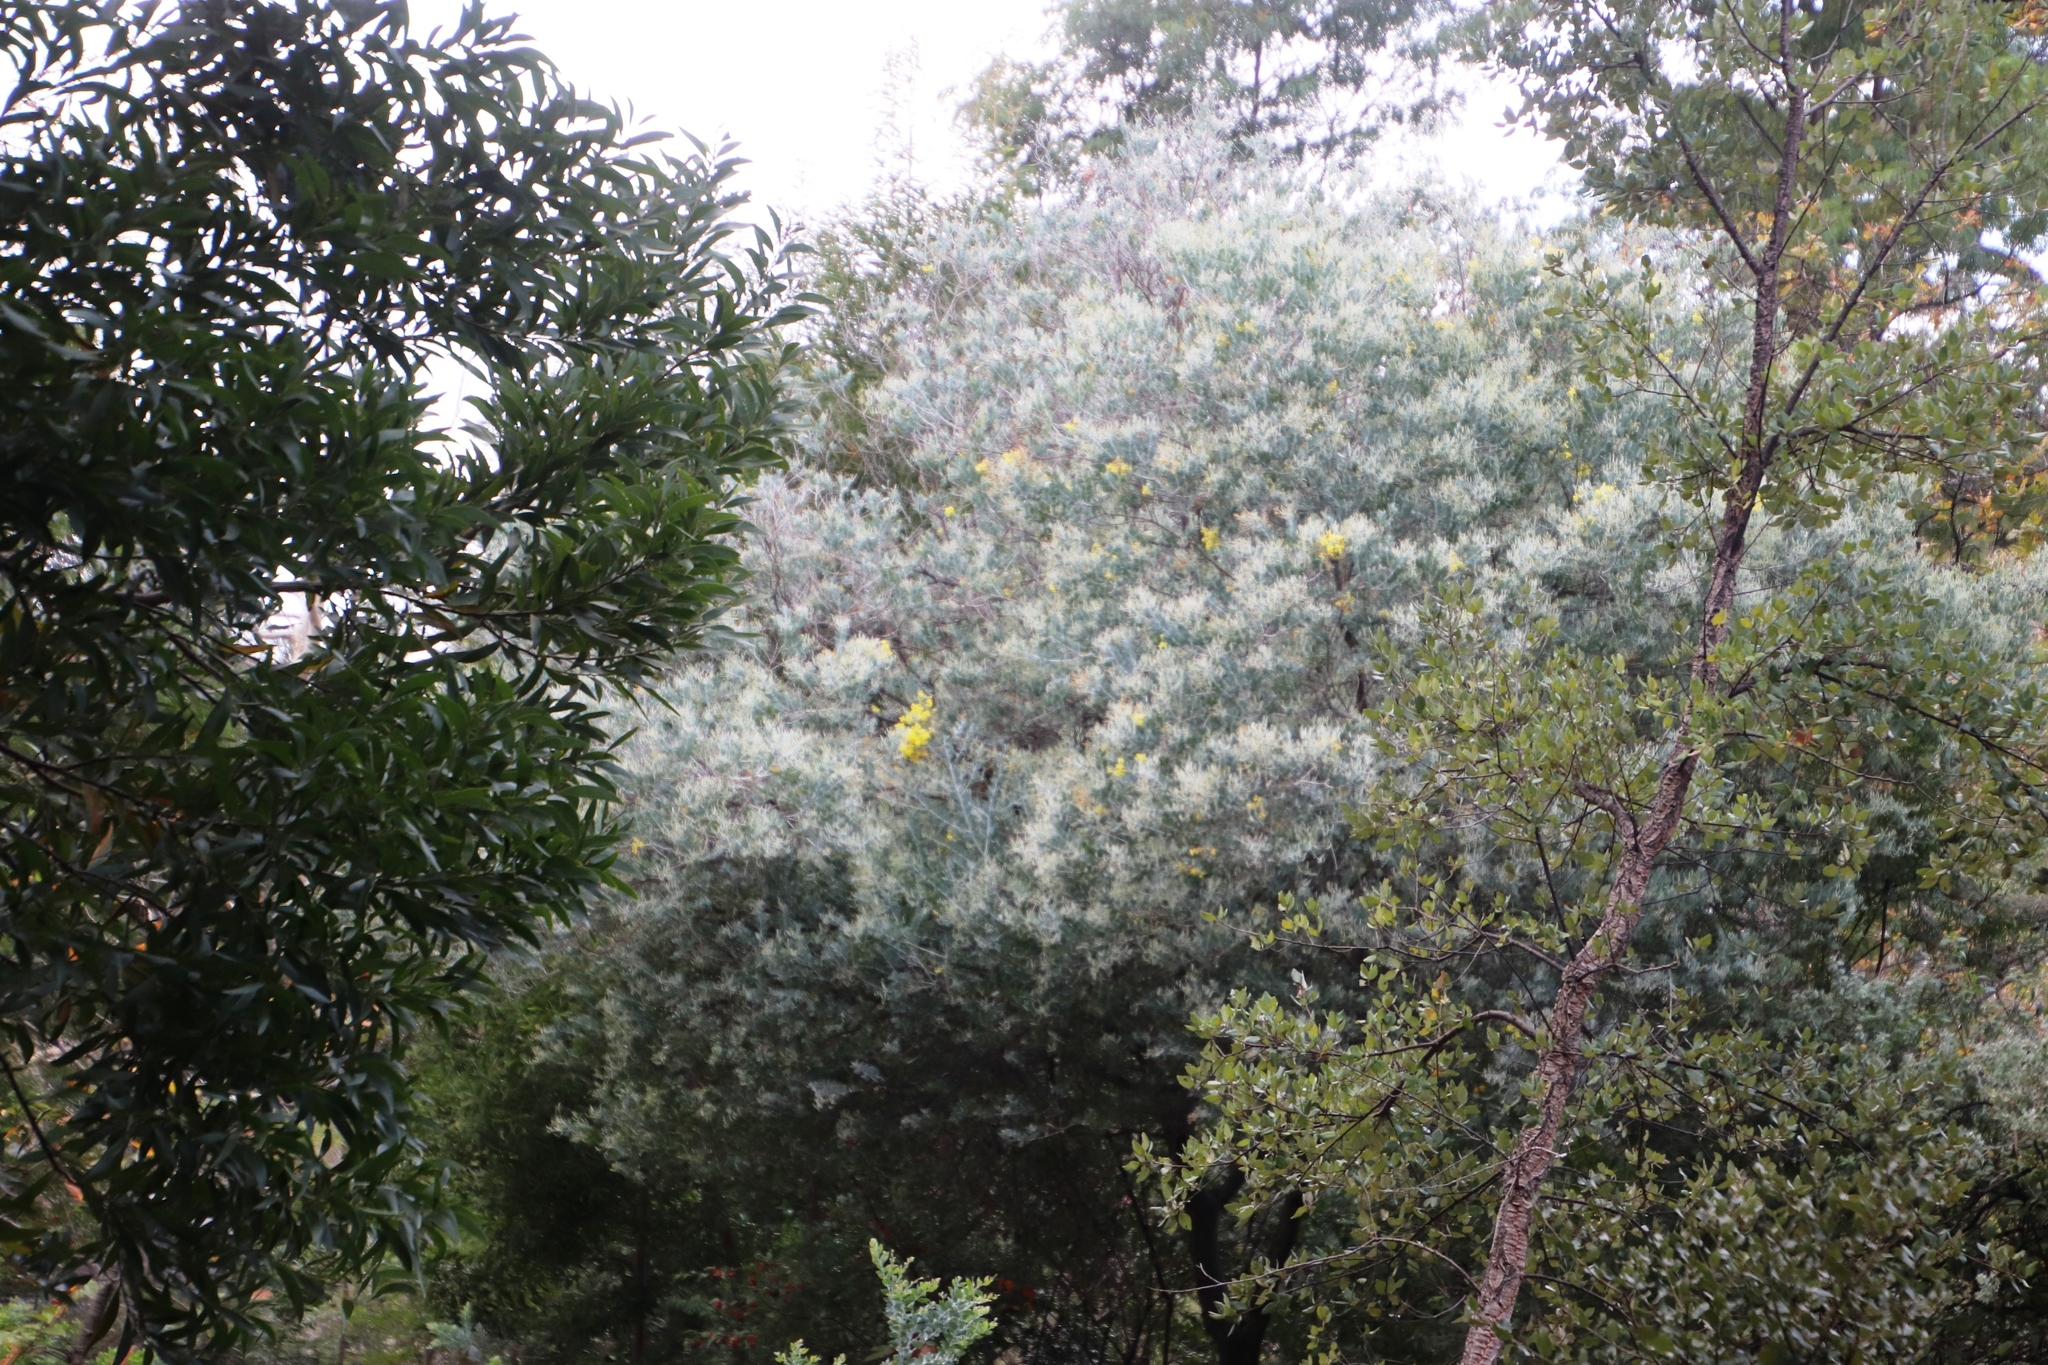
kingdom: Plantae
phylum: Tracheophyta
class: Magnoliopsida
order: Fabales
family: Fabaceae
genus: Acacia
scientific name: Acacia podalyriifolia
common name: Pearl wattle
